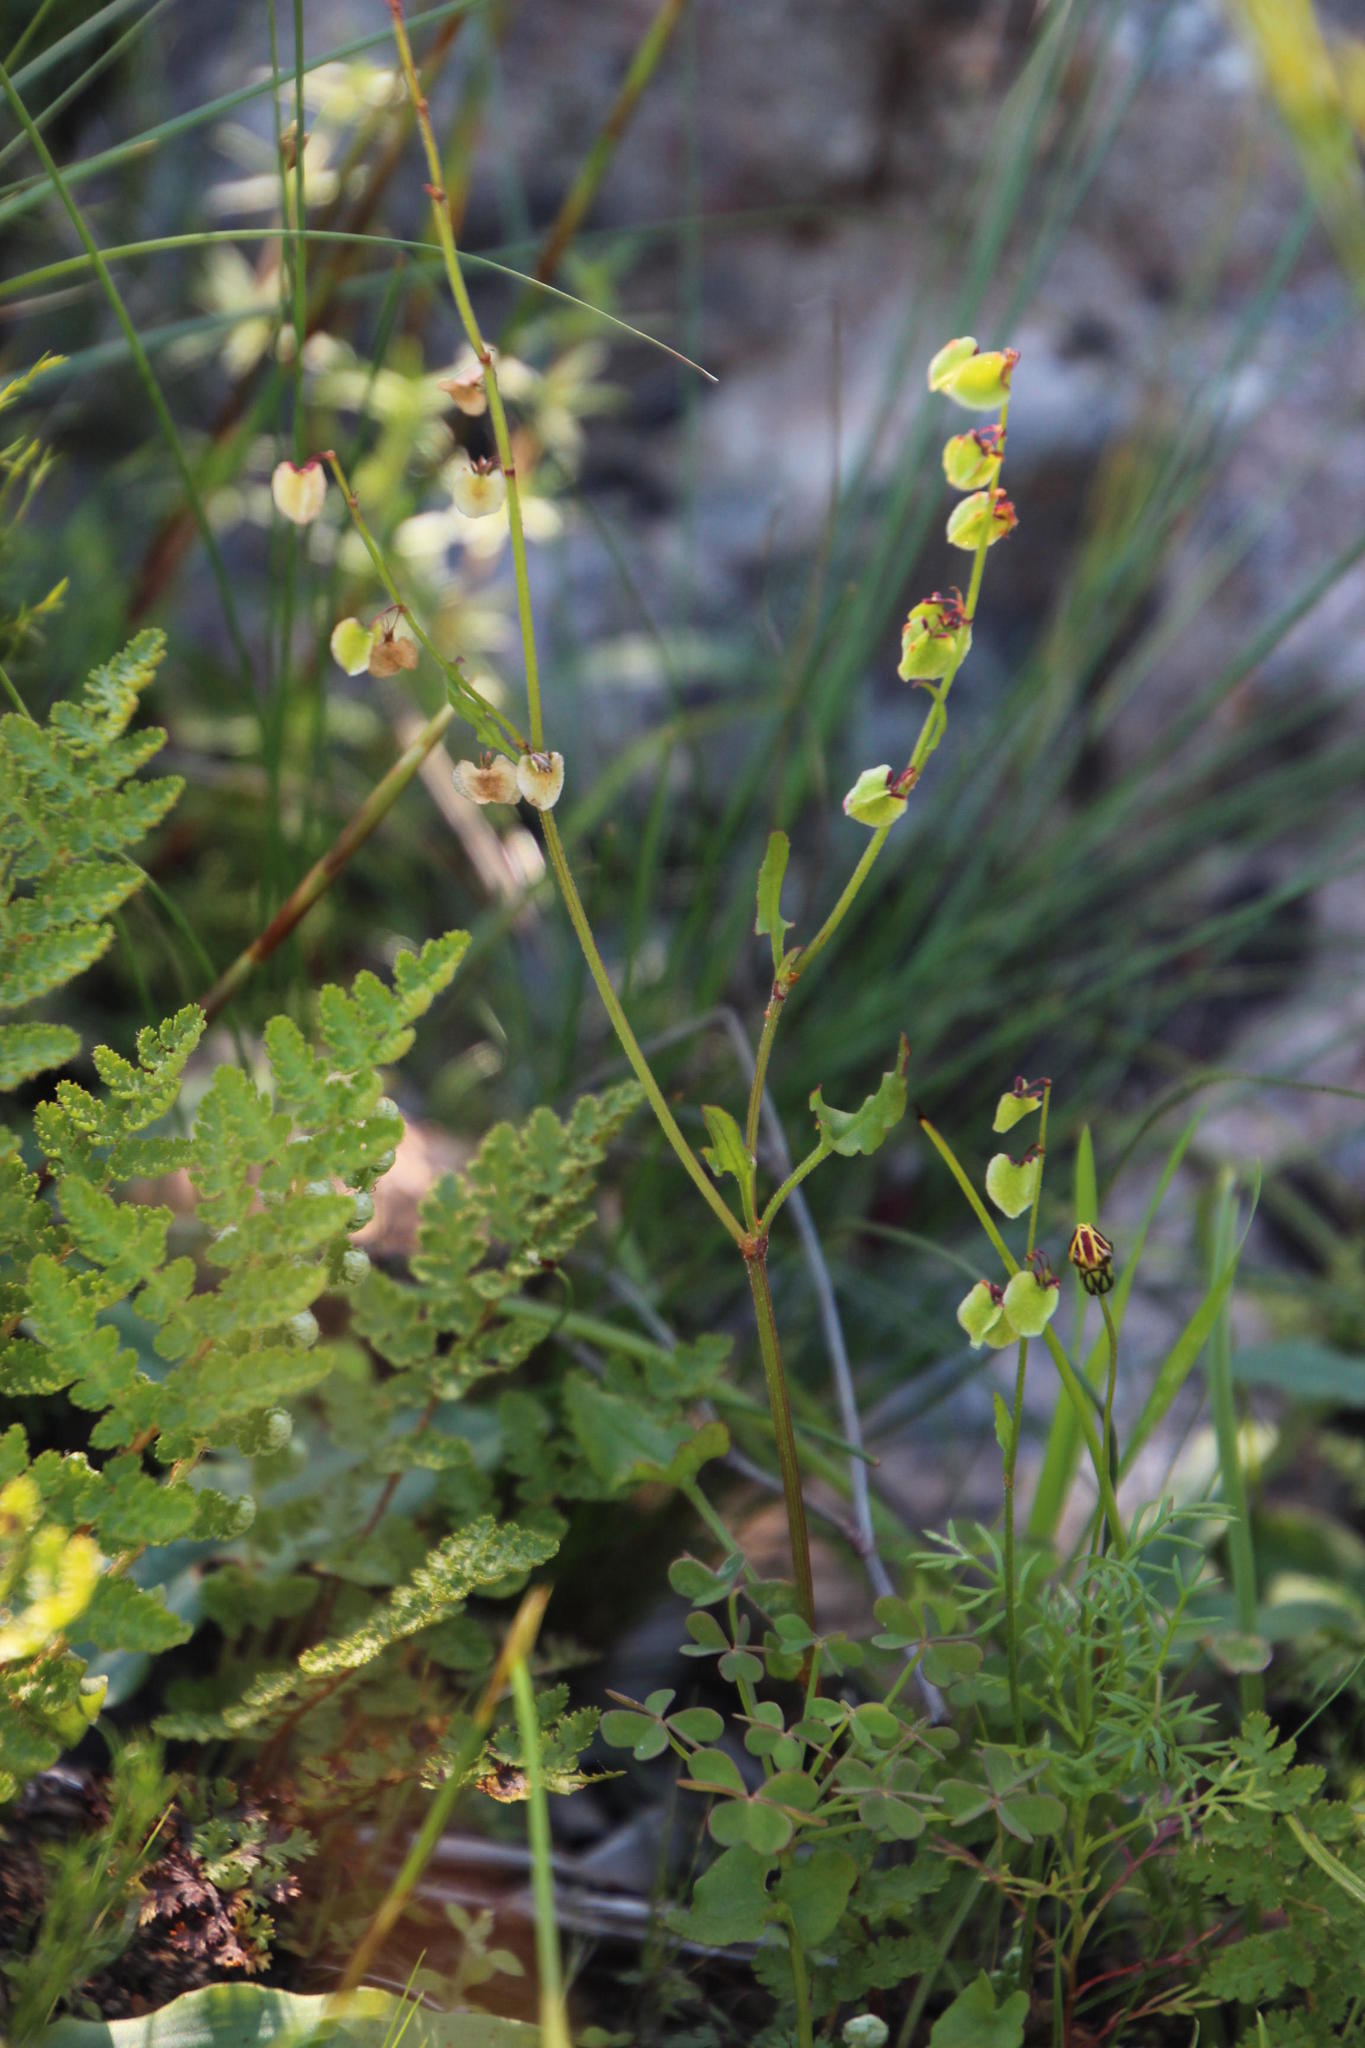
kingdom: Plantae
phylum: Tracheophyta
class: Magnoliopsida
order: Caryophyllales
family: Polygonaceae
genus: Rumex
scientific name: Rumex acetosella
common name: Common sheep sorrel
